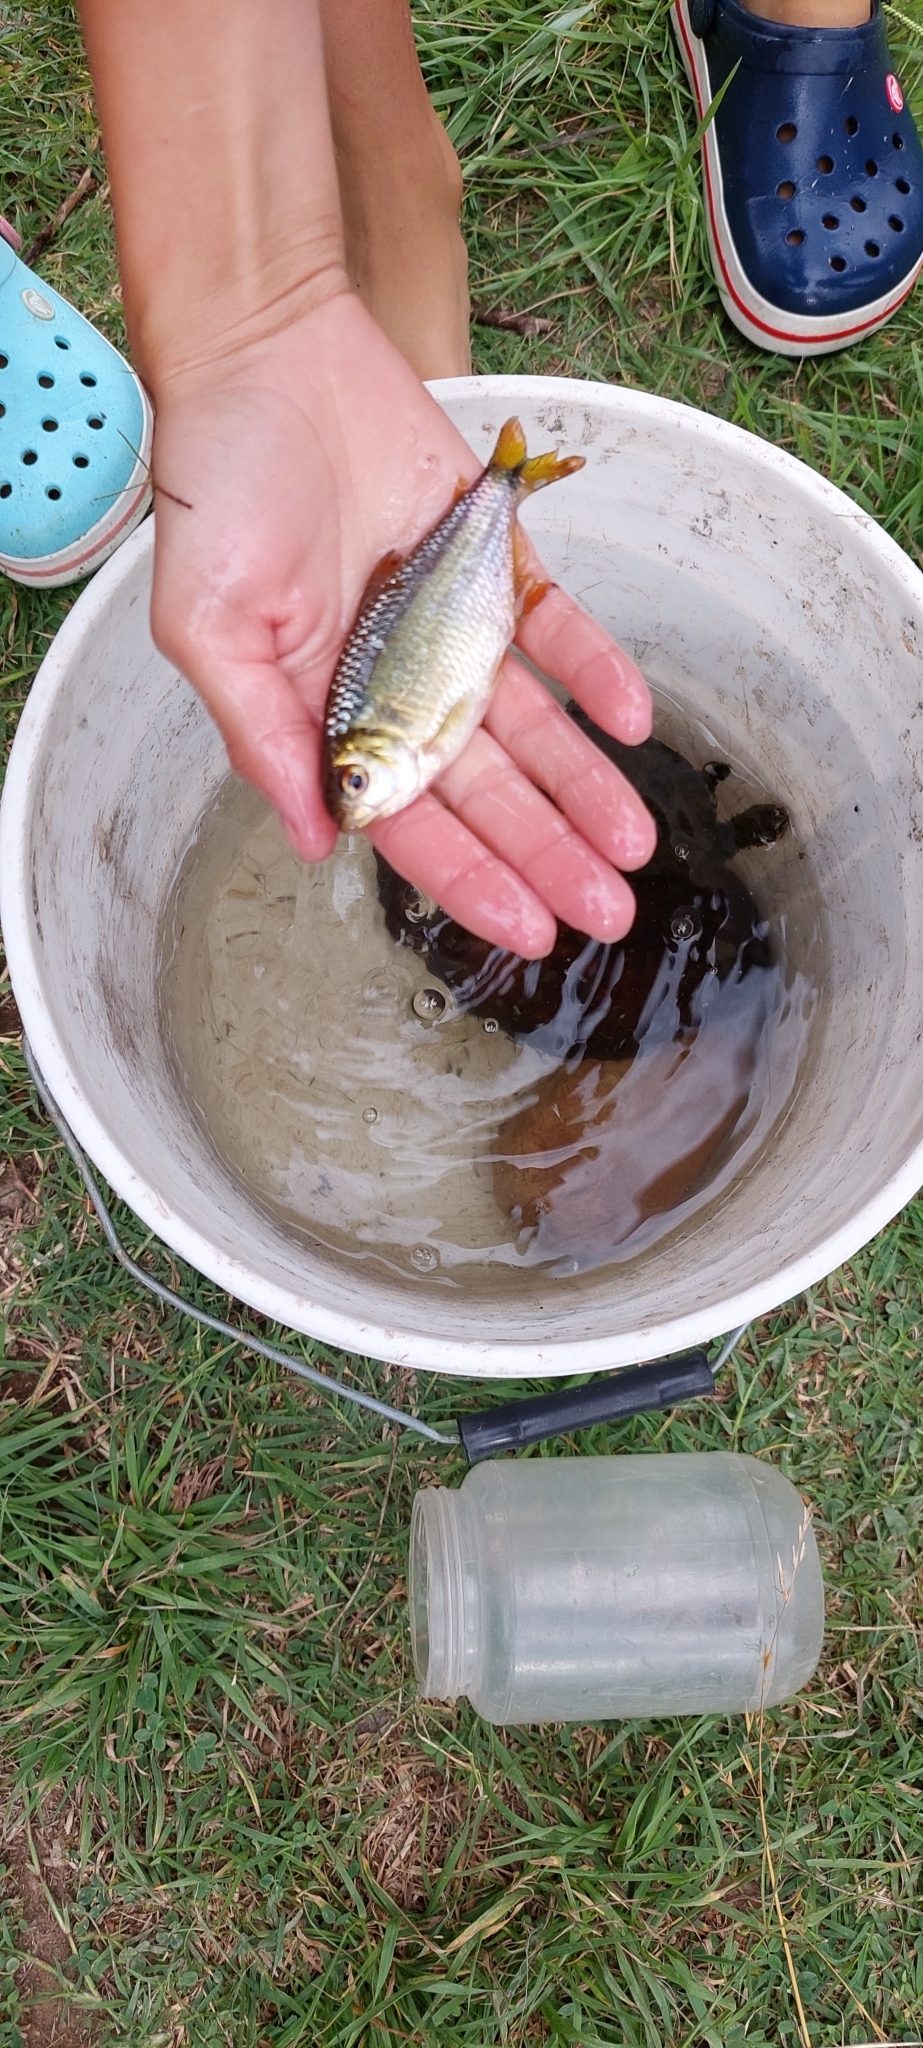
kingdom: Animalia
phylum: Chordata
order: Characiformes
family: Characidae
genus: Astyanax
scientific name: Astyanax eigenmanniorum
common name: Tetra
